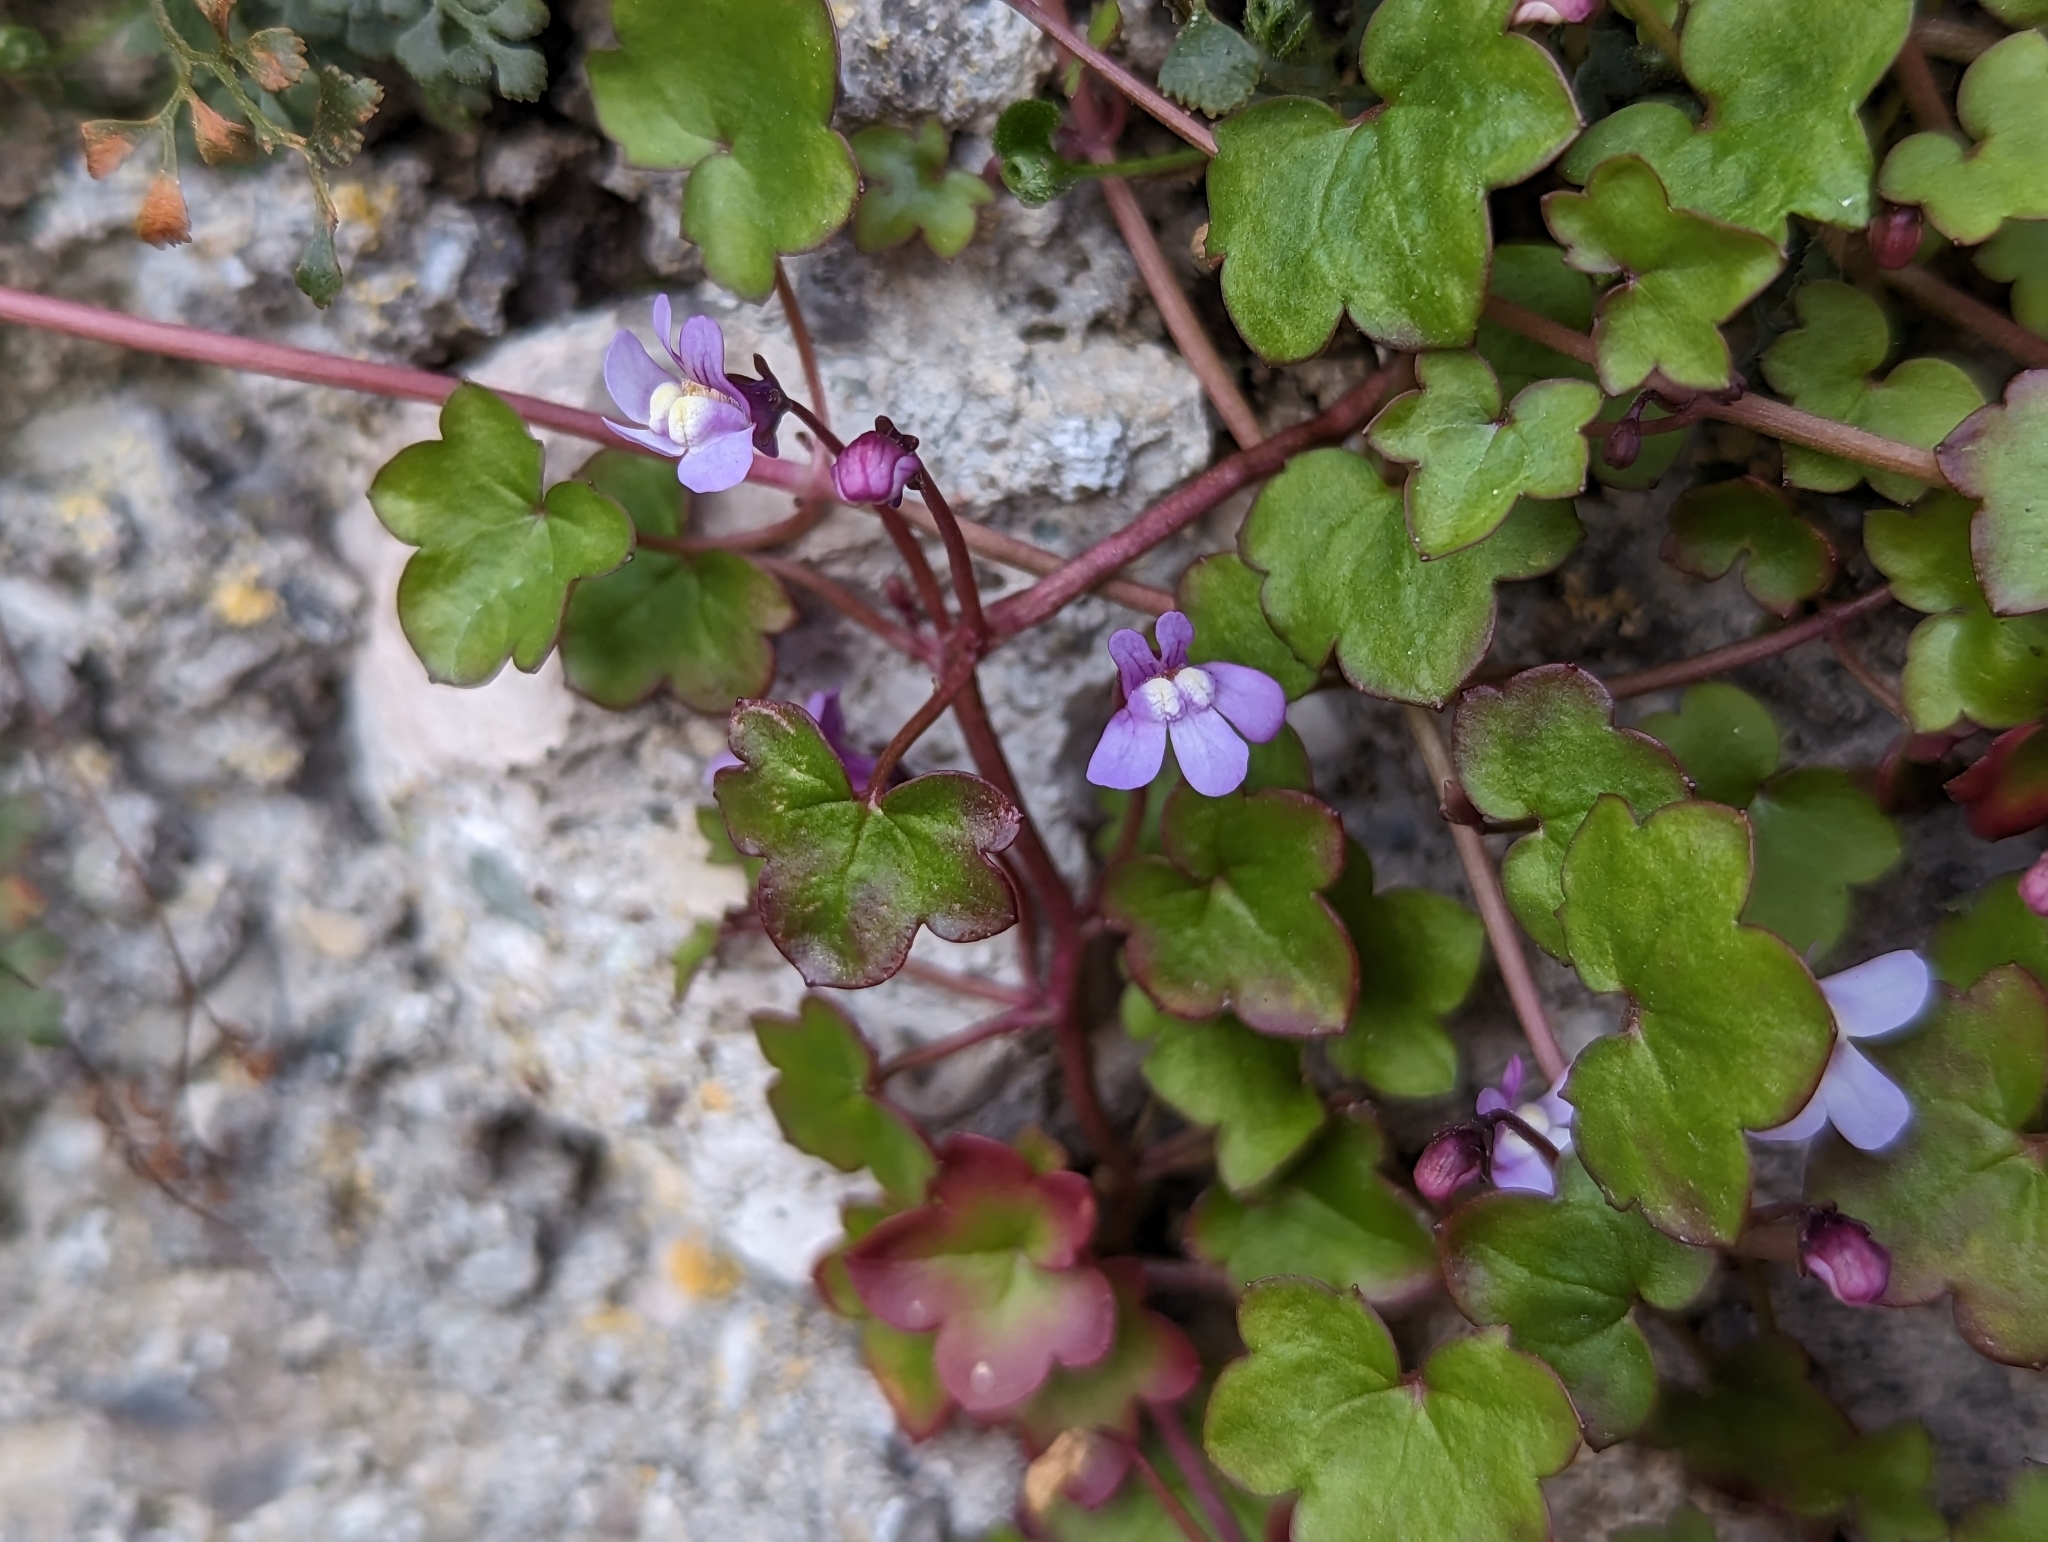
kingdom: Plantae
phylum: Tracheophyta
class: Magnoliopsida
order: Lamiales
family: Plantaginaceae
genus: Cymbalaria
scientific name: Cymbalaria muralis
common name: Ivy-leaved toadflax
